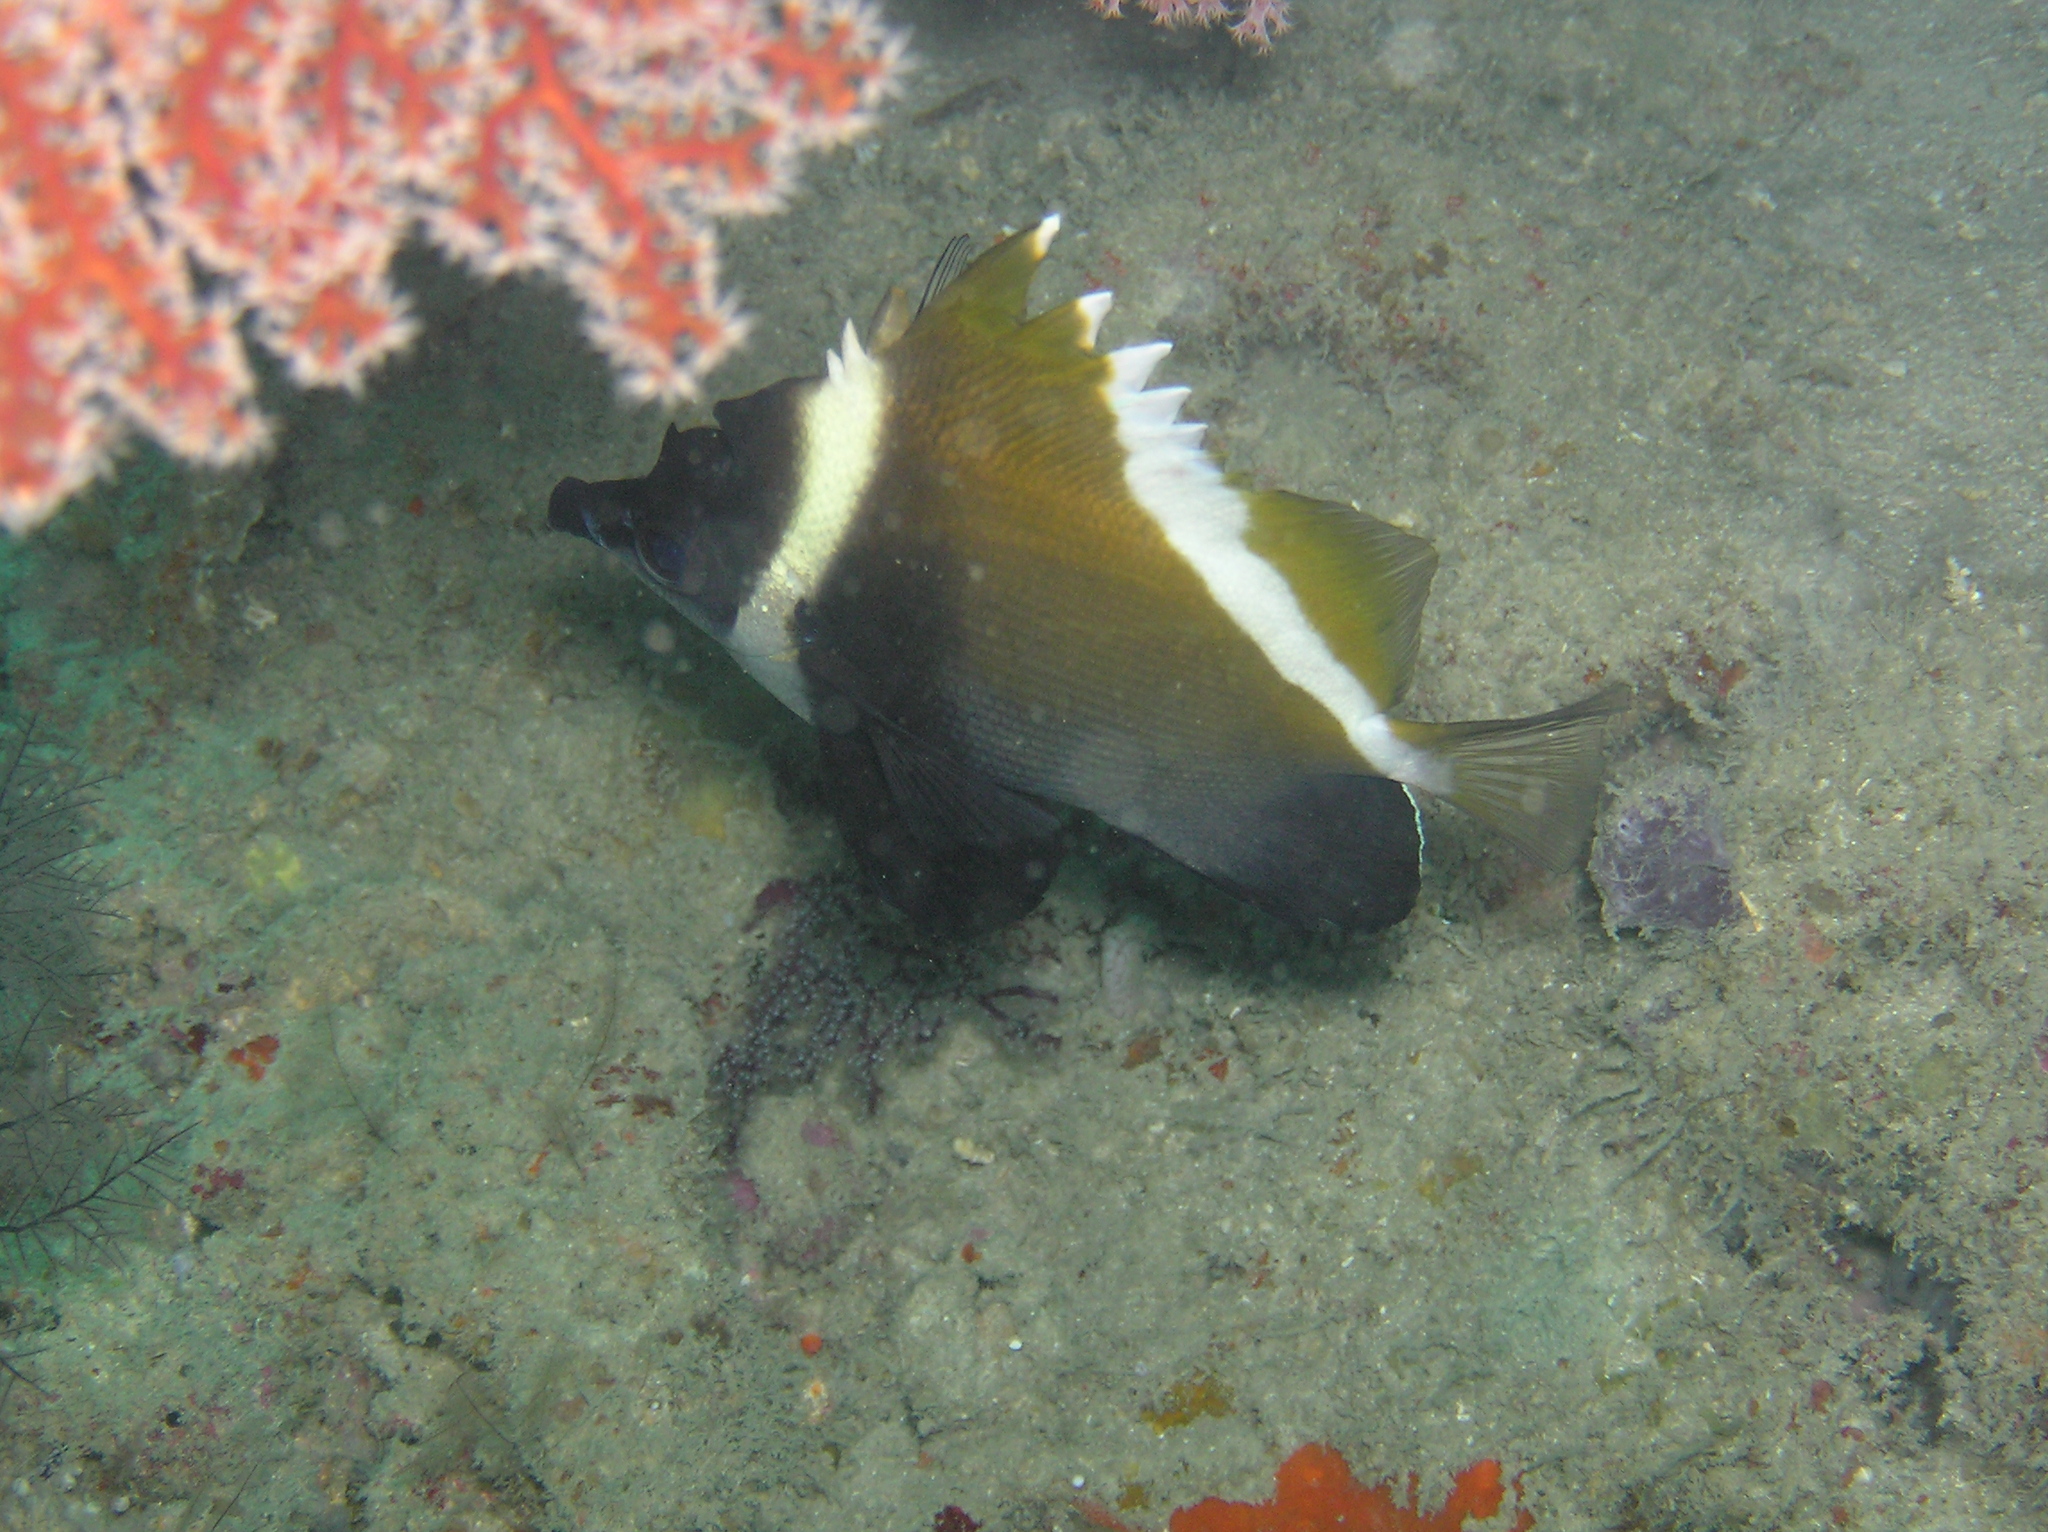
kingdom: Animalia
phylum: Chordata
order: Perciformes
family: Chaetodontidae
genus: Heniochus
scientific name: Heniochus varius
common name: Horned bannerfish
